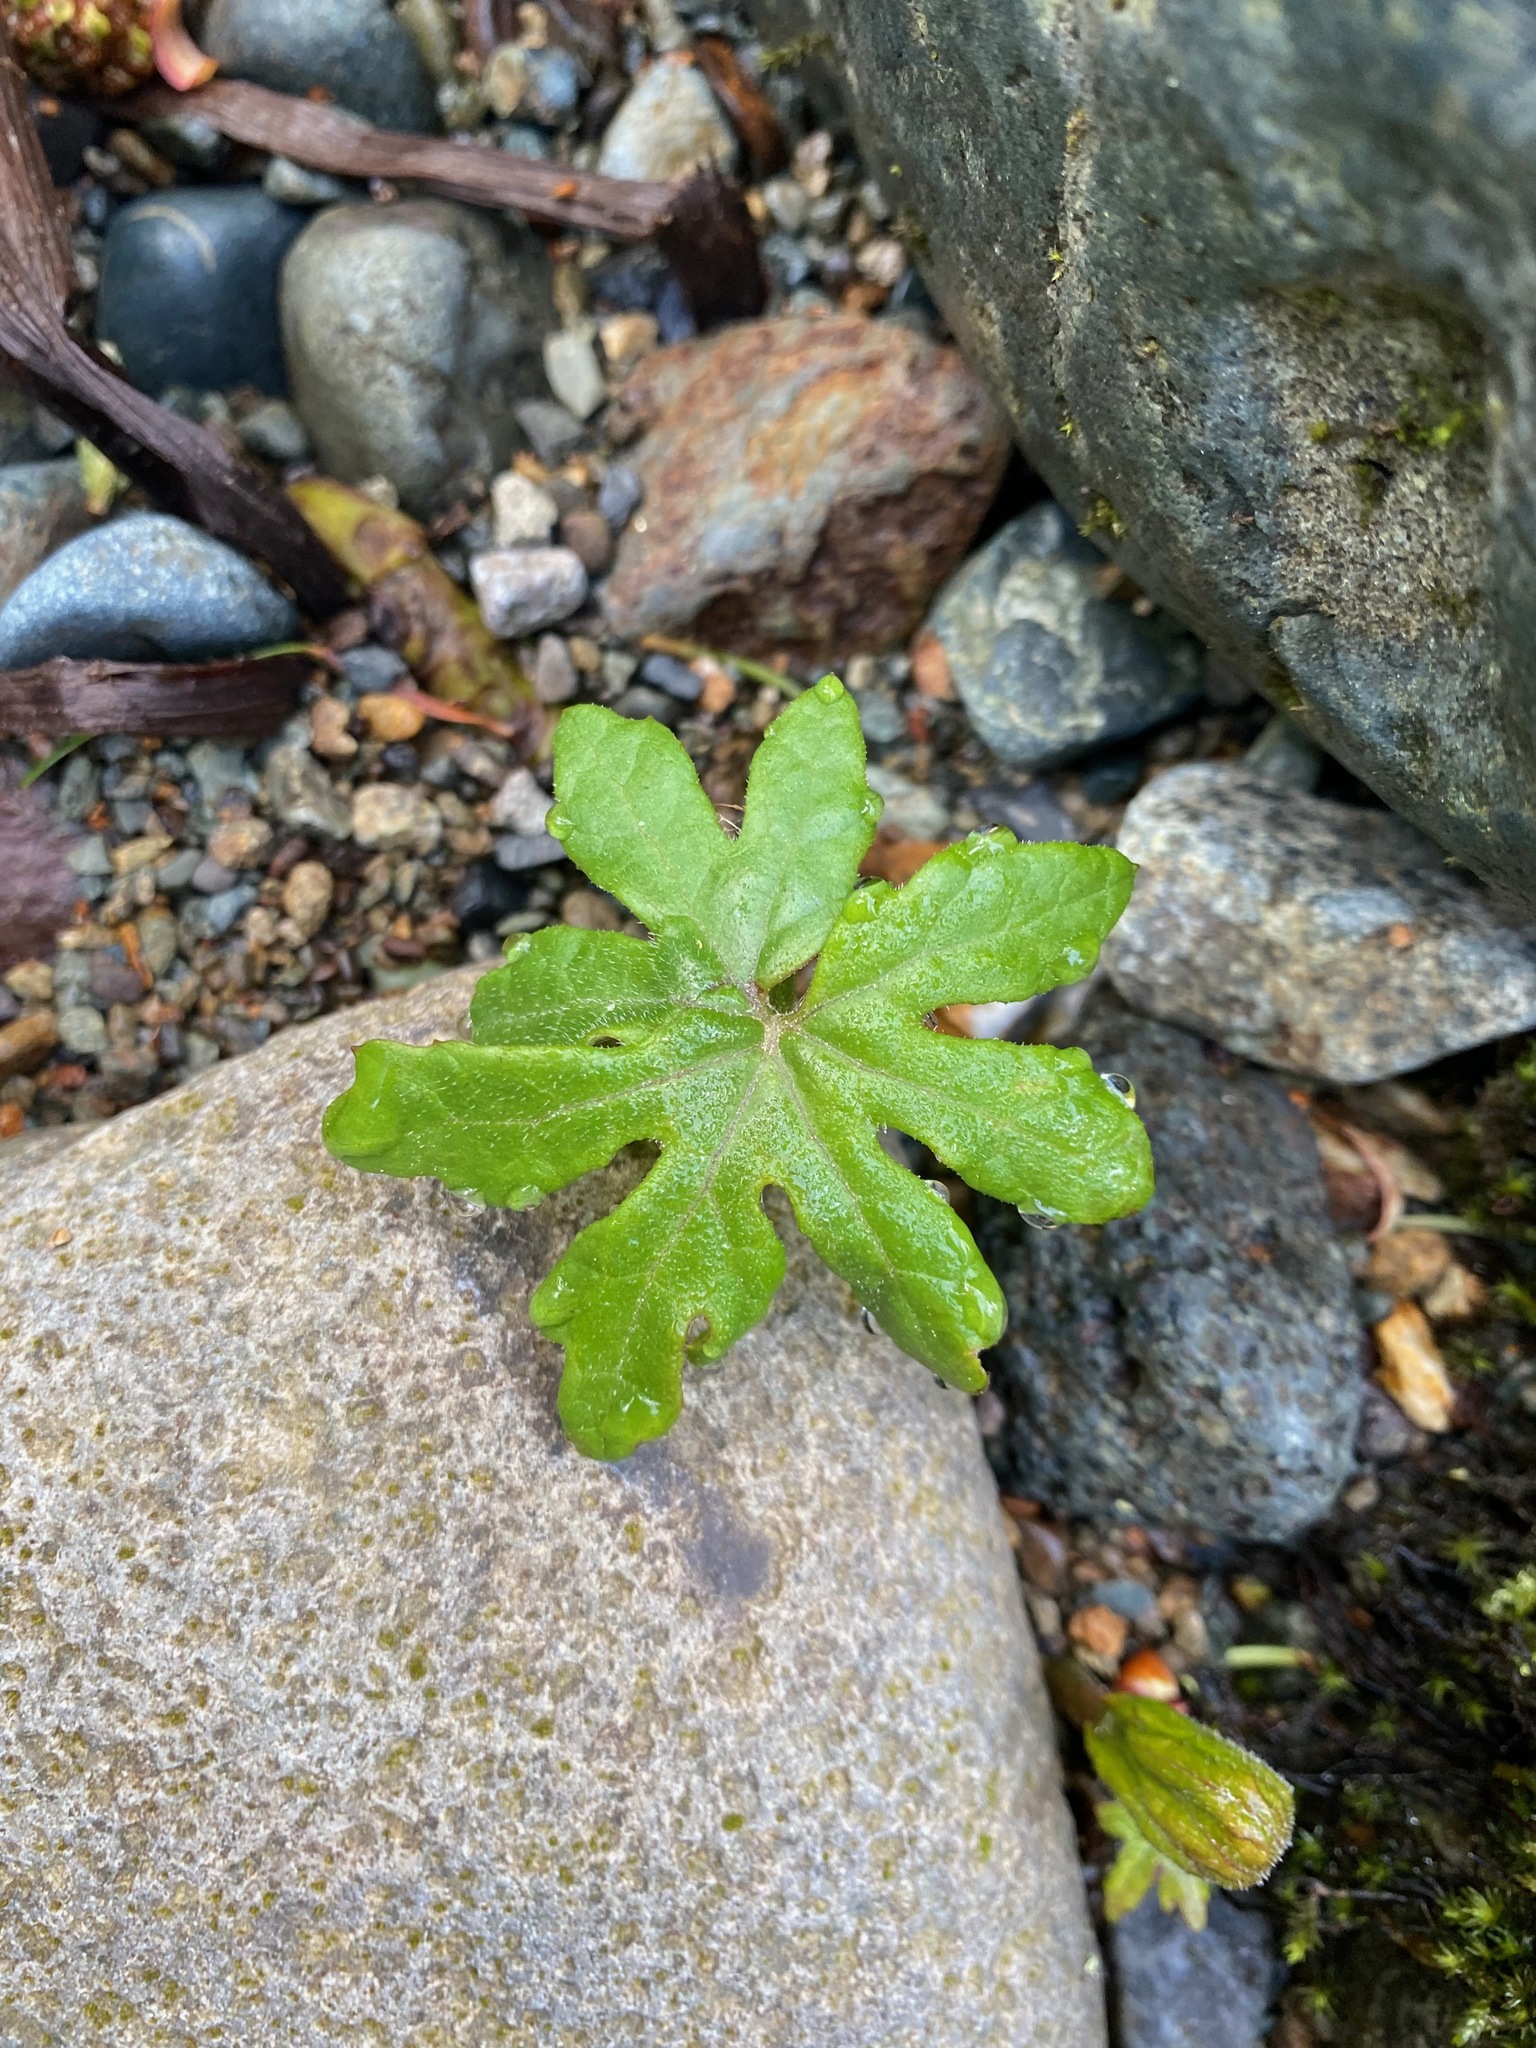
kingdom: Plantae
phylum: Tracheophyta
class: Magnoliopsida
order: Asterales
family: Asteraceae
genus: Petasites
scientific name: Petasites frigidus
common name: Arctic butterbur
